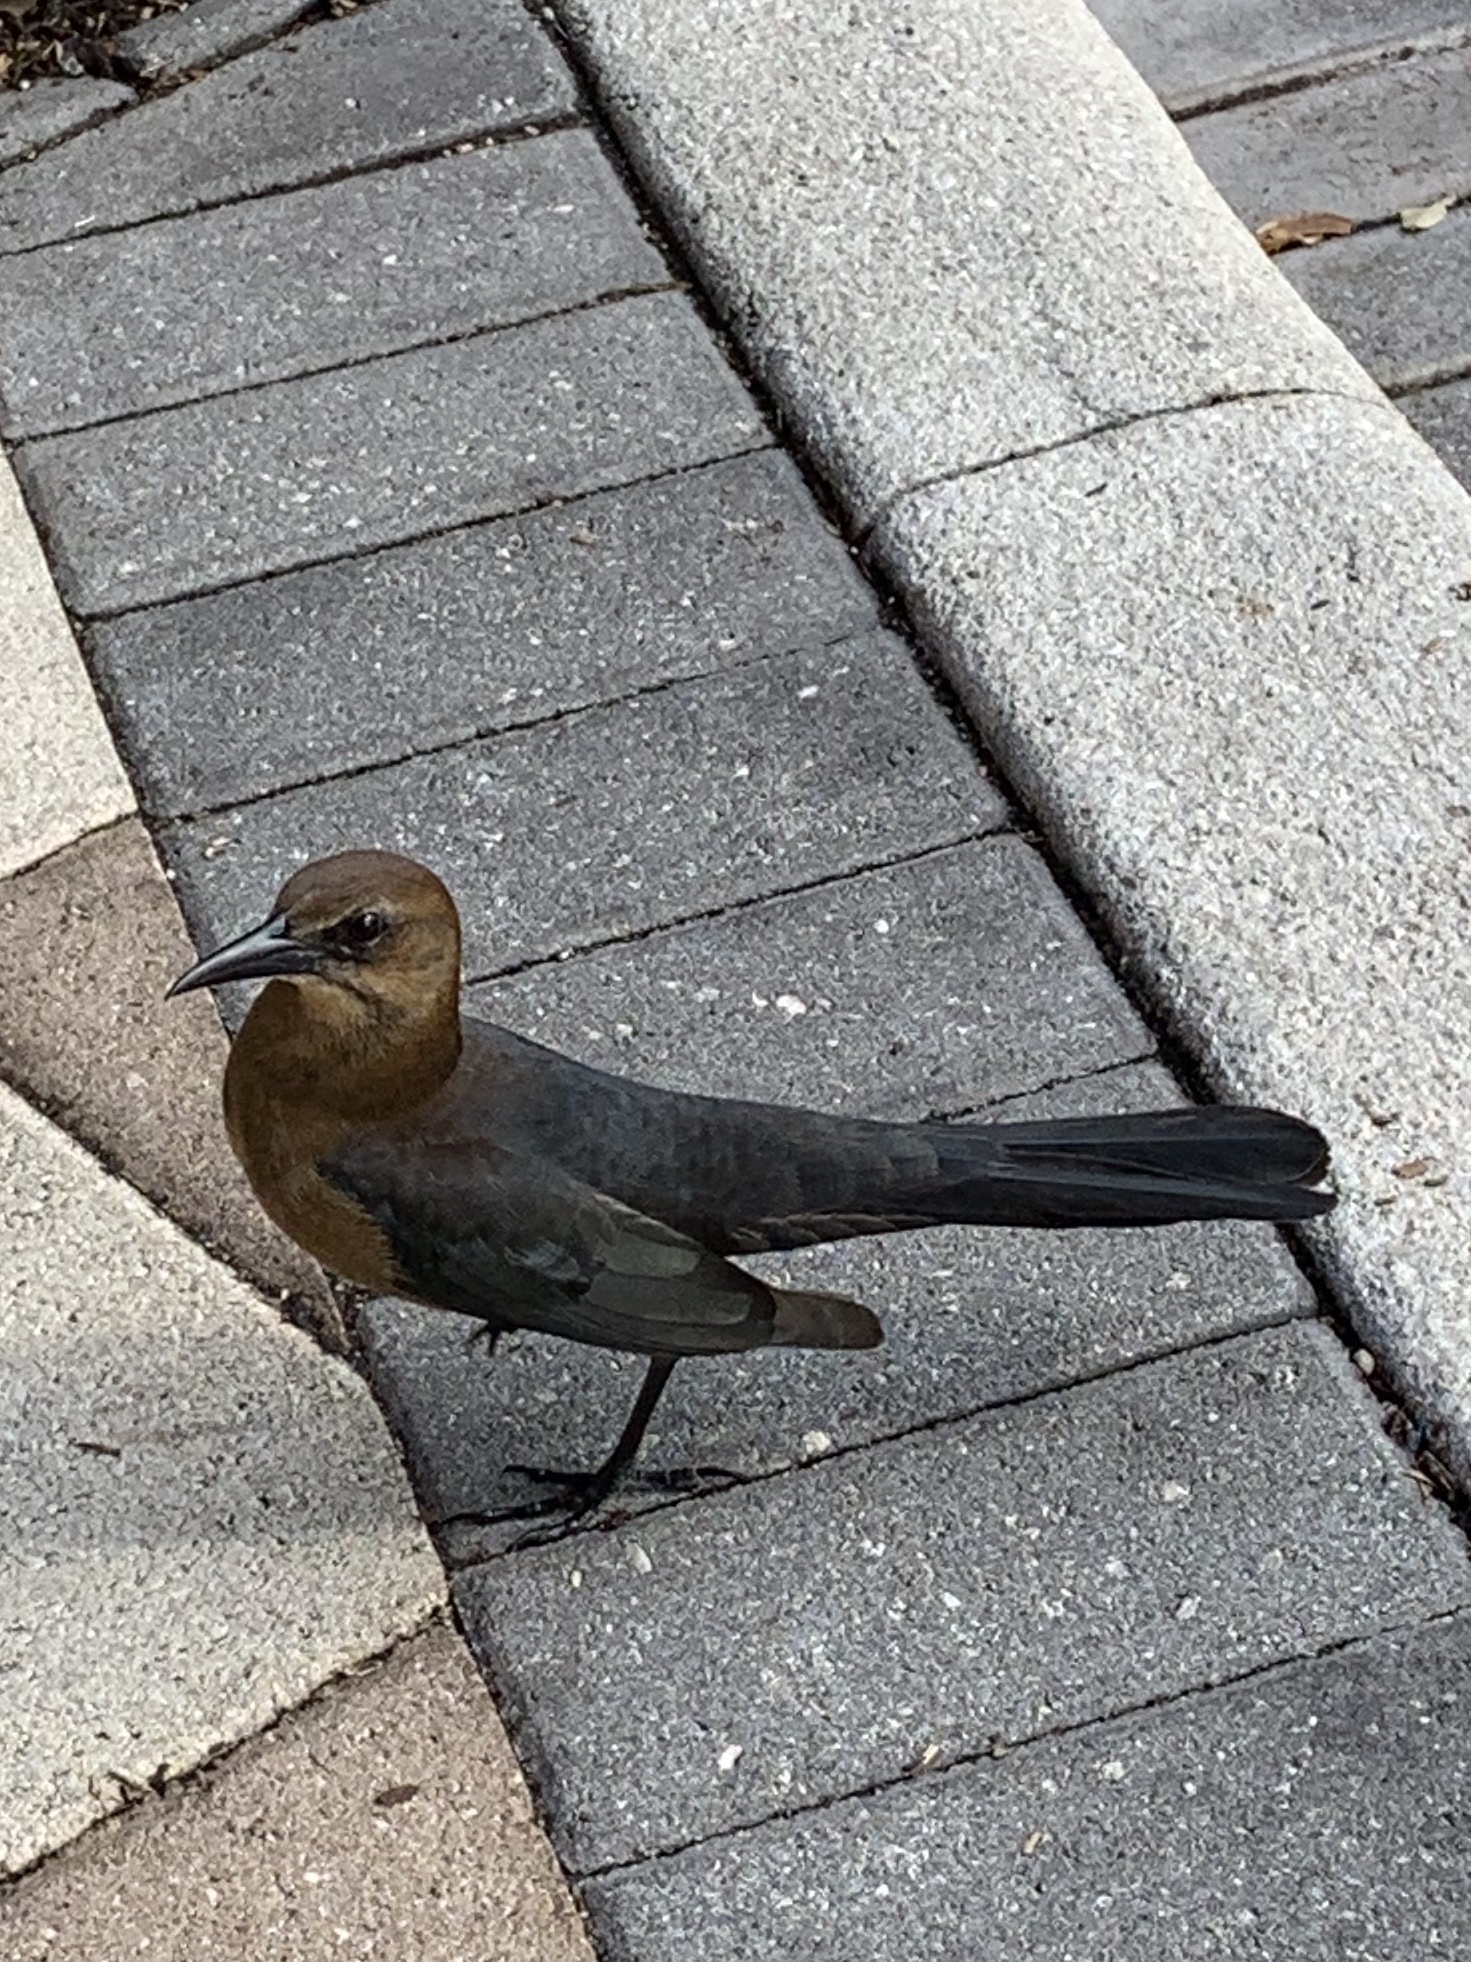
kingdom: Animalia
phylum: Chordata
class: Aves
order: Passeriformes
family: Icteridae
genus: Quiscalus
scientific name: Quiscalus major
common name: Boat-tailed grackle
